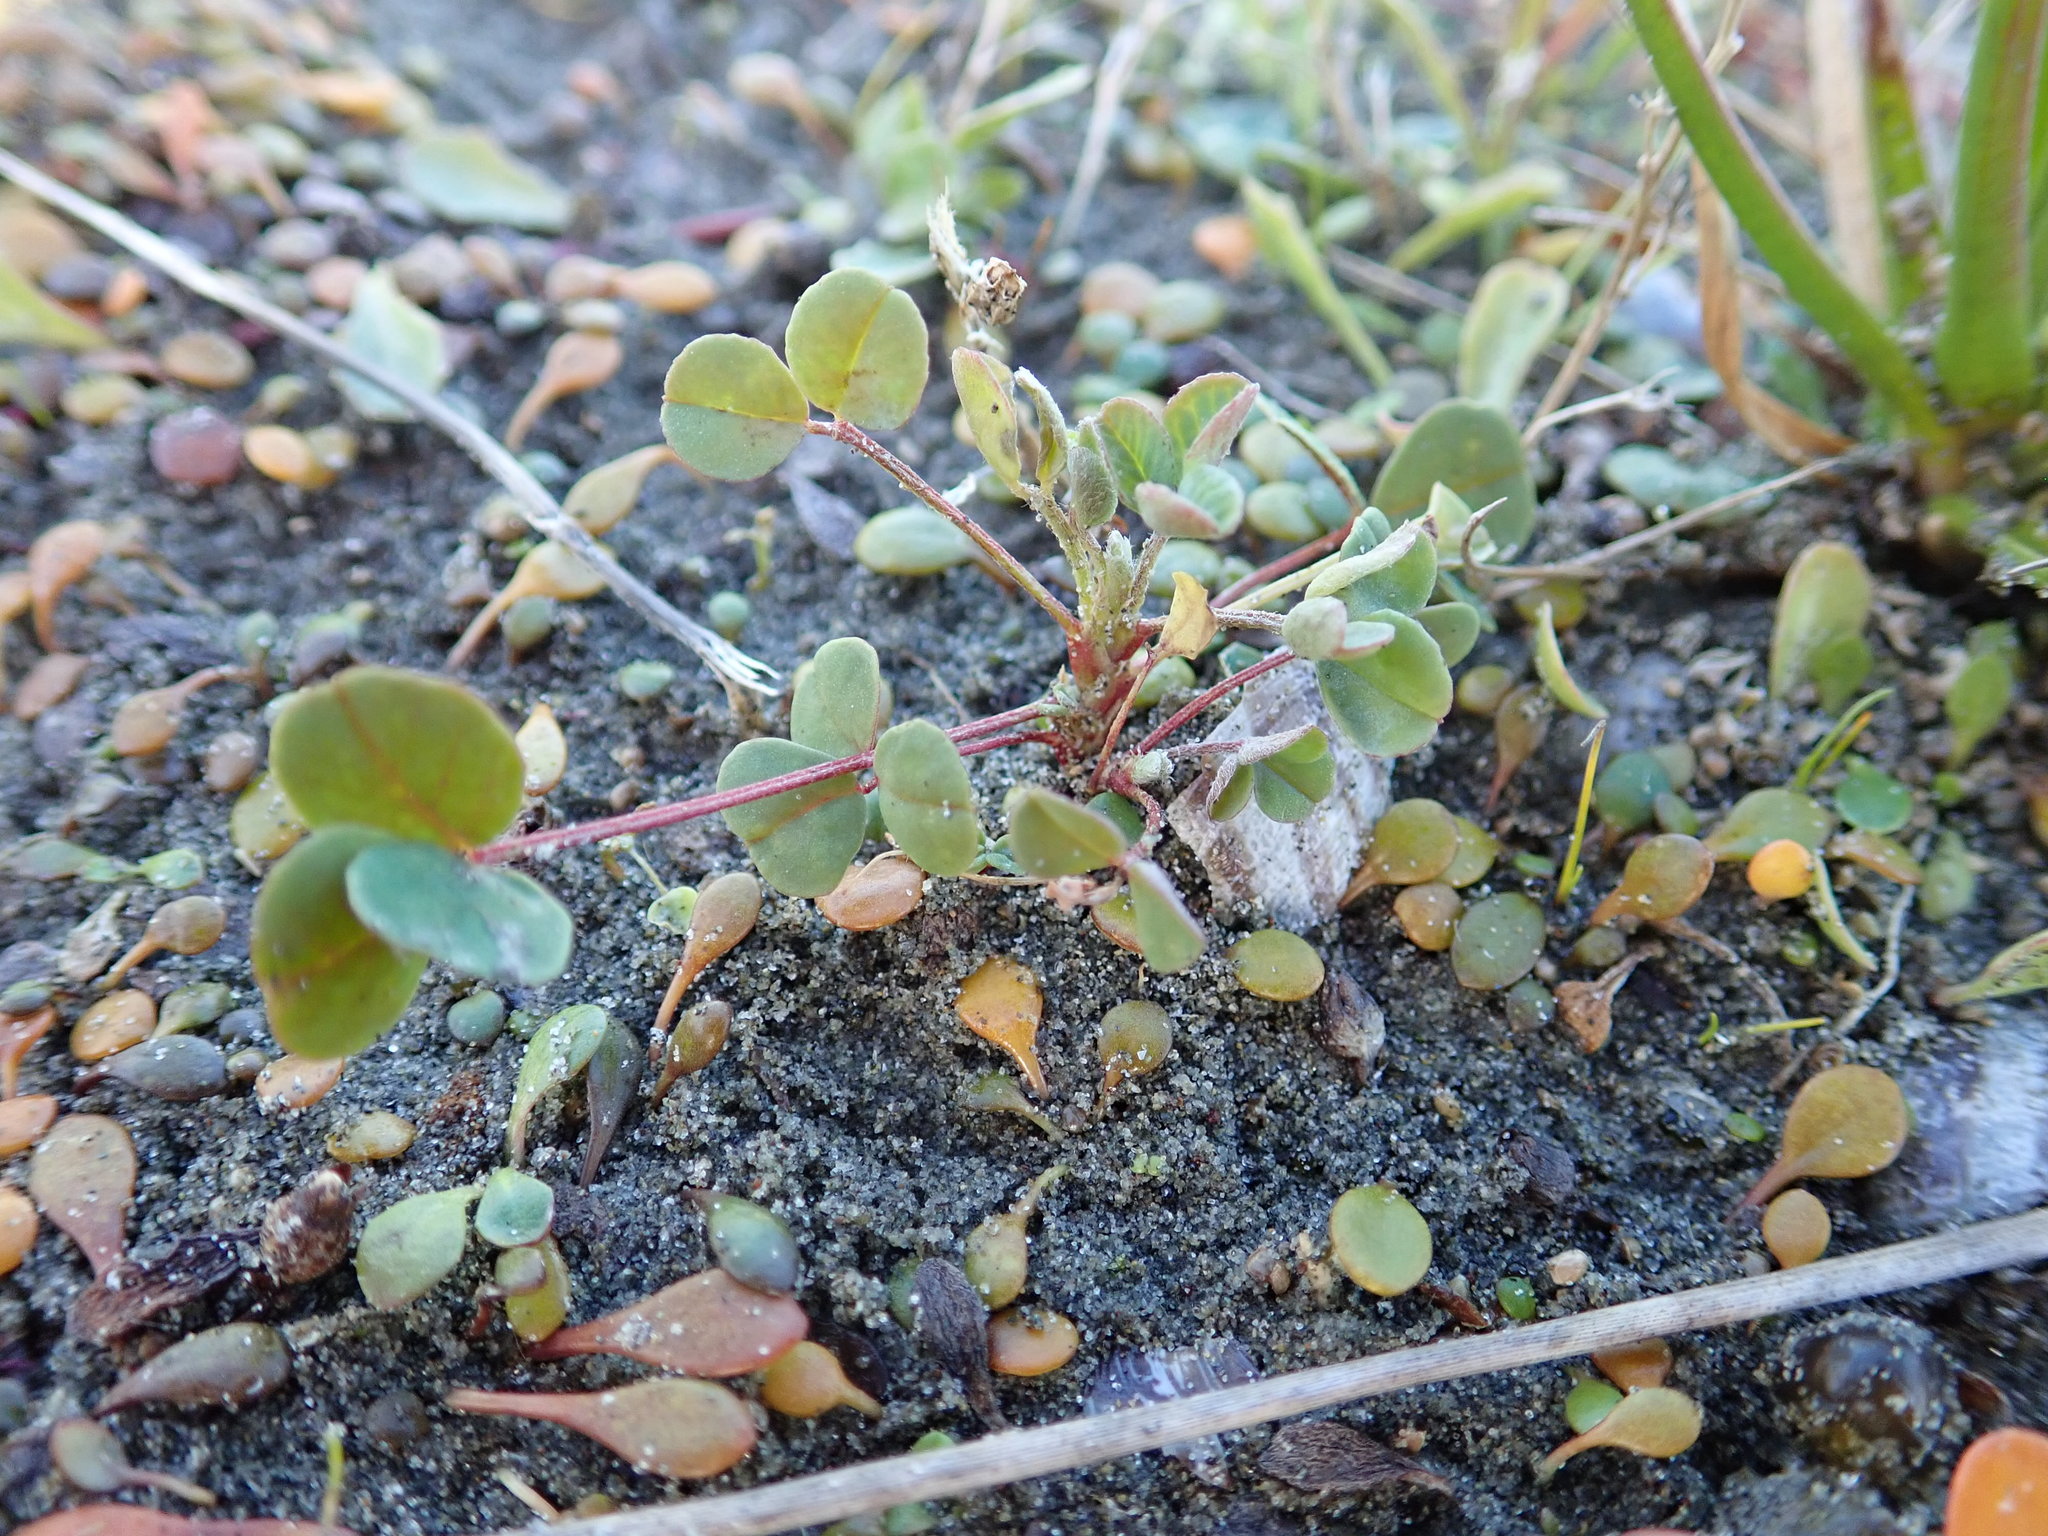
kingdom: Plantae
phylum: Tracheophyta
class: Magnoliopsida
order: Fabales
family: Fabaceae
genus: Melilotus
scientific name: Melilotus indicus
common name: Small melilot
